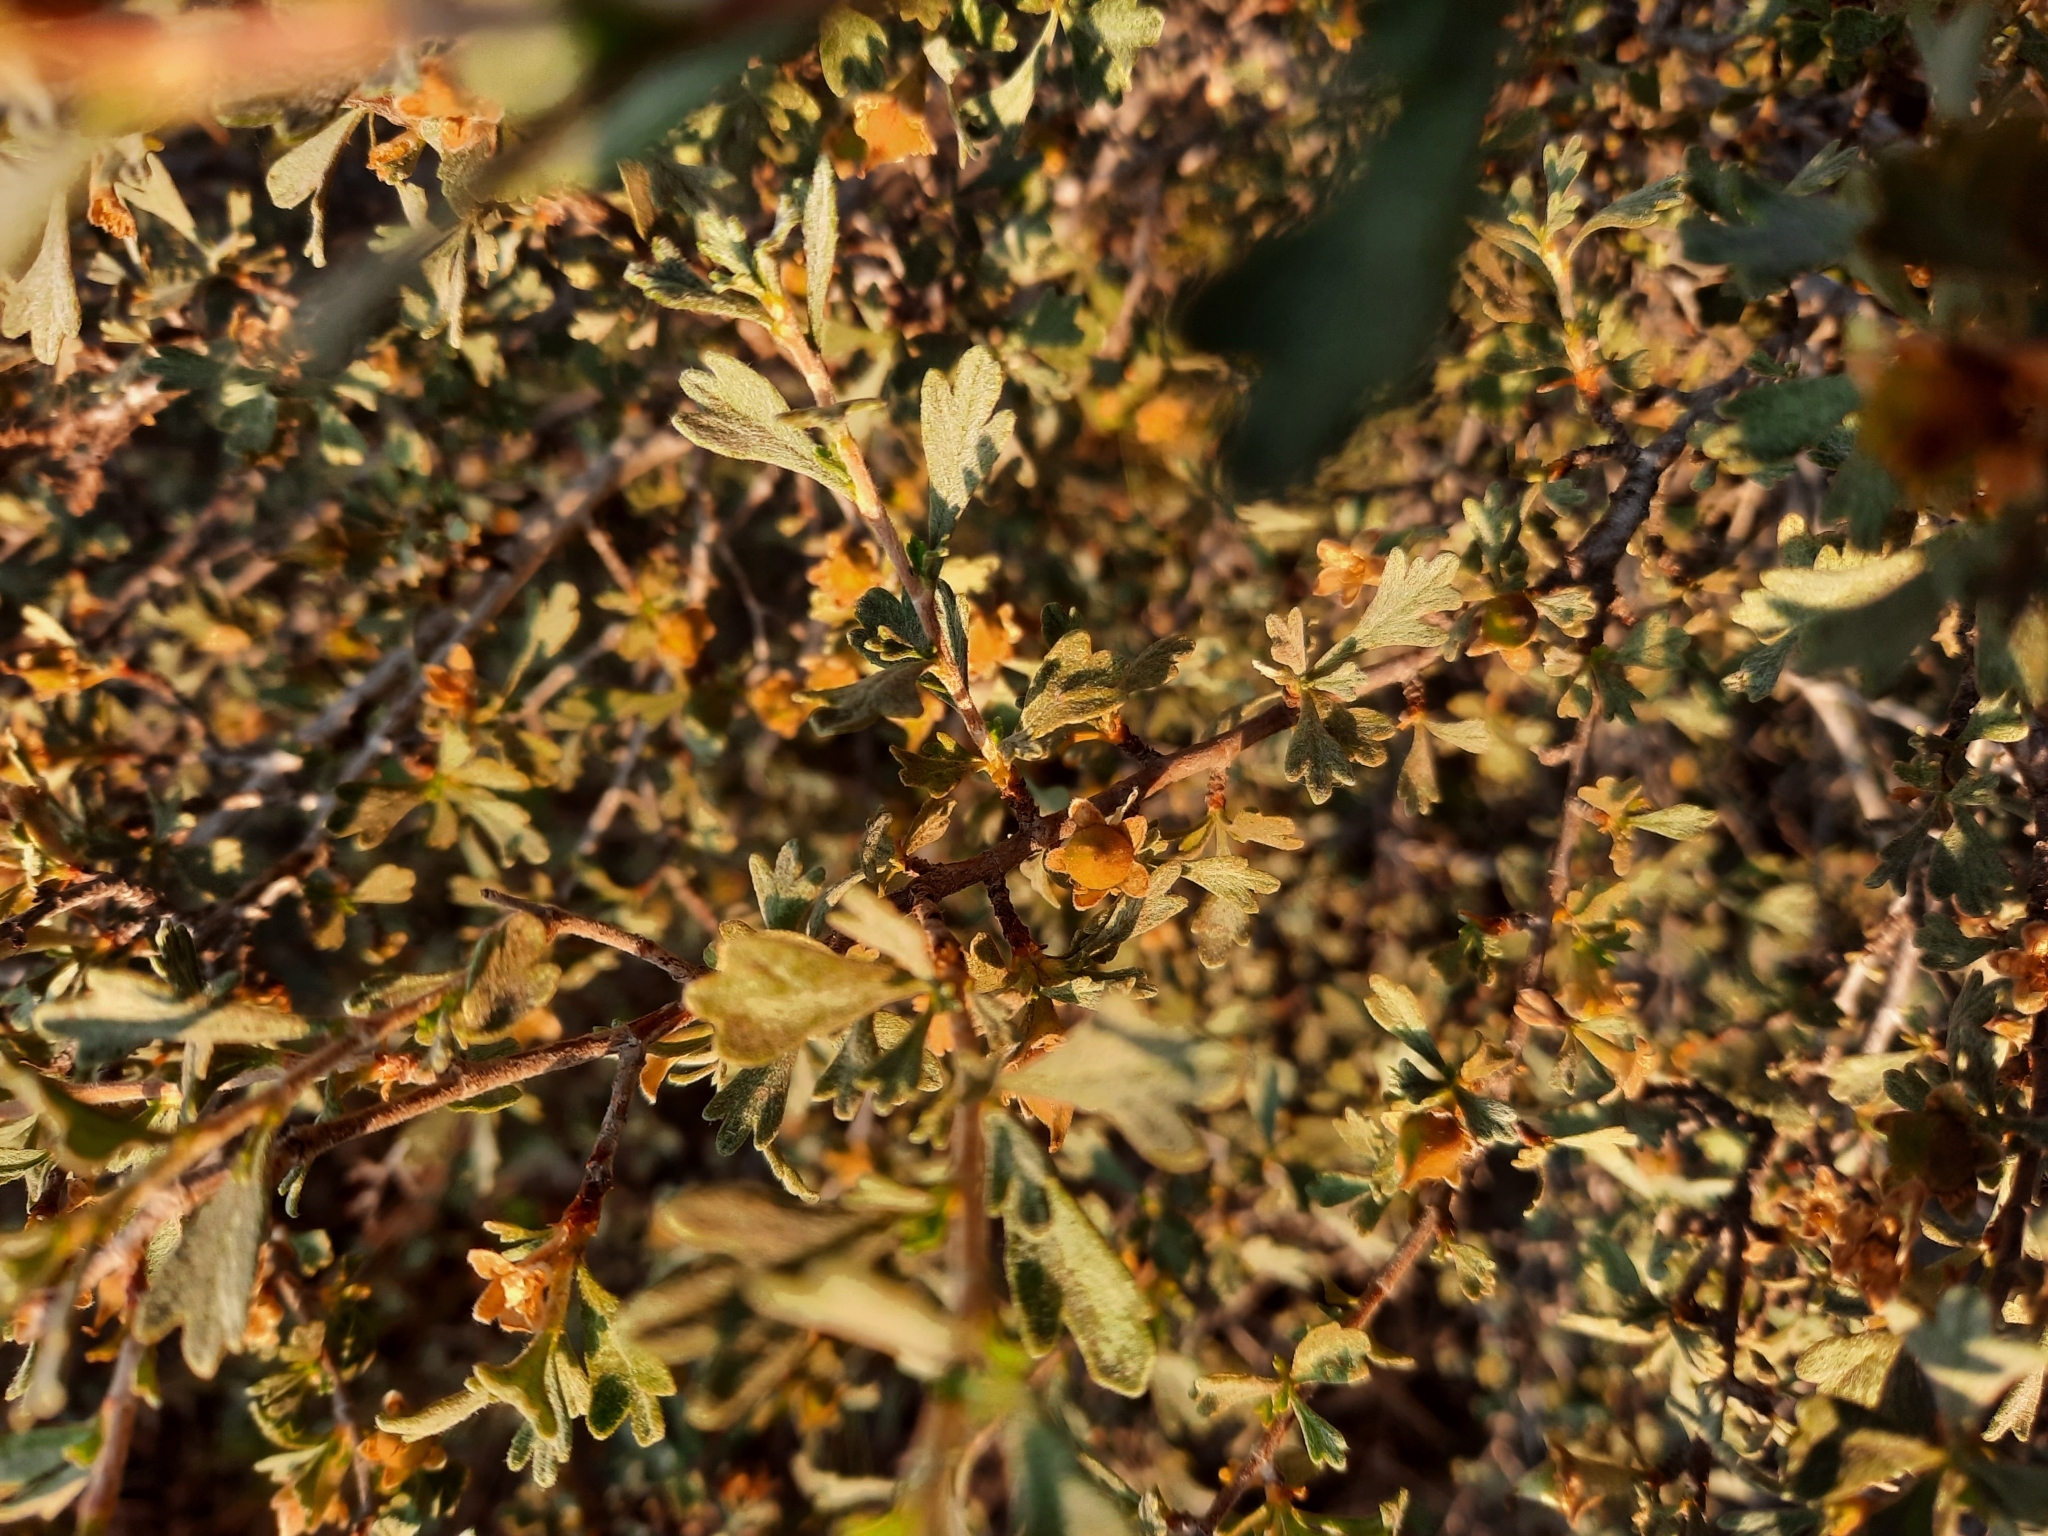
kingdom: Plantae
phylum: Tracheophyta
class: Magnoliopsida
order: Rosales
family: Rosaceae
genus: Purshia
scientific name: Purshia tridentata
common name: Antelope bitterbrush
